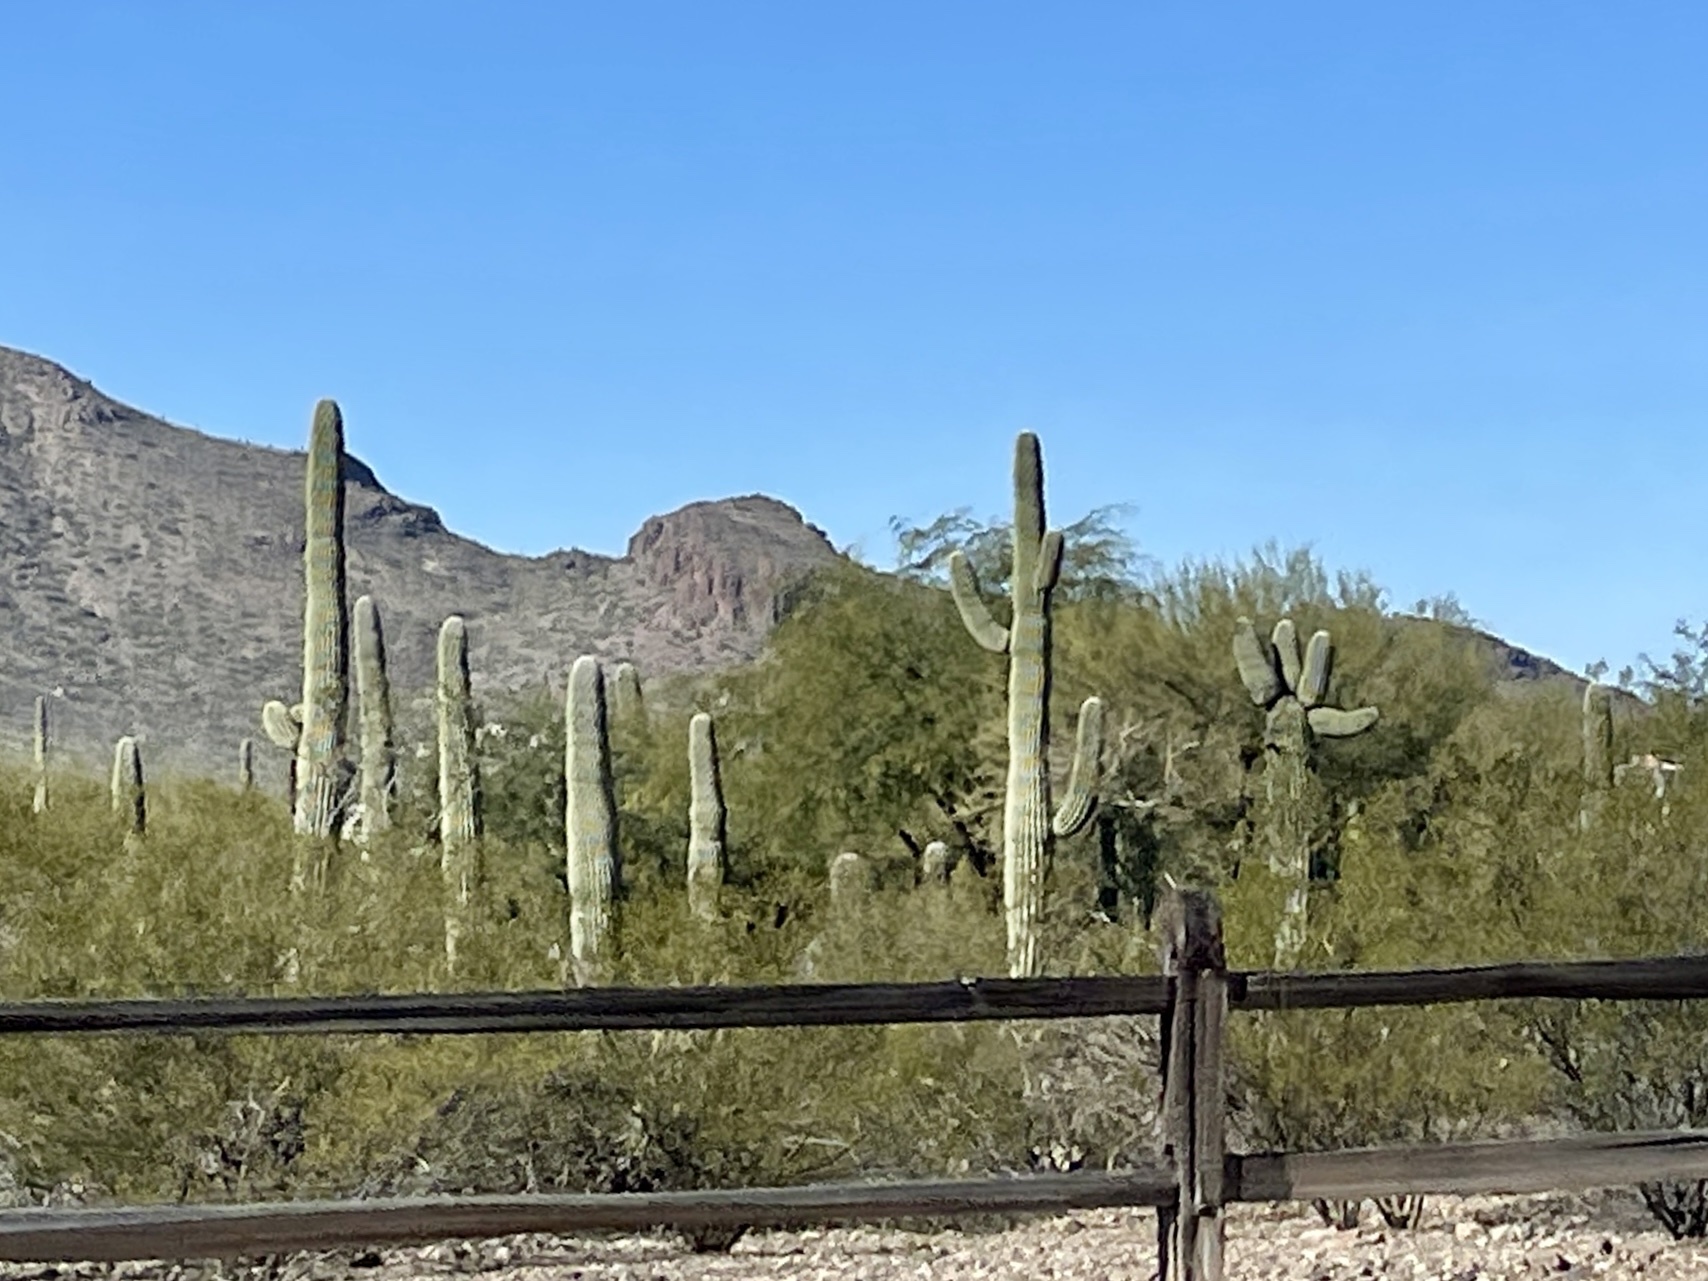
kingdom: Plantae
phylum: Tracheophyta
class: Magnoliopsida
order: Caryophyllales
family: Cactaceae
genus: Carnegiea
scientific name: Carnegiea gigantea
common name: Saguaro
